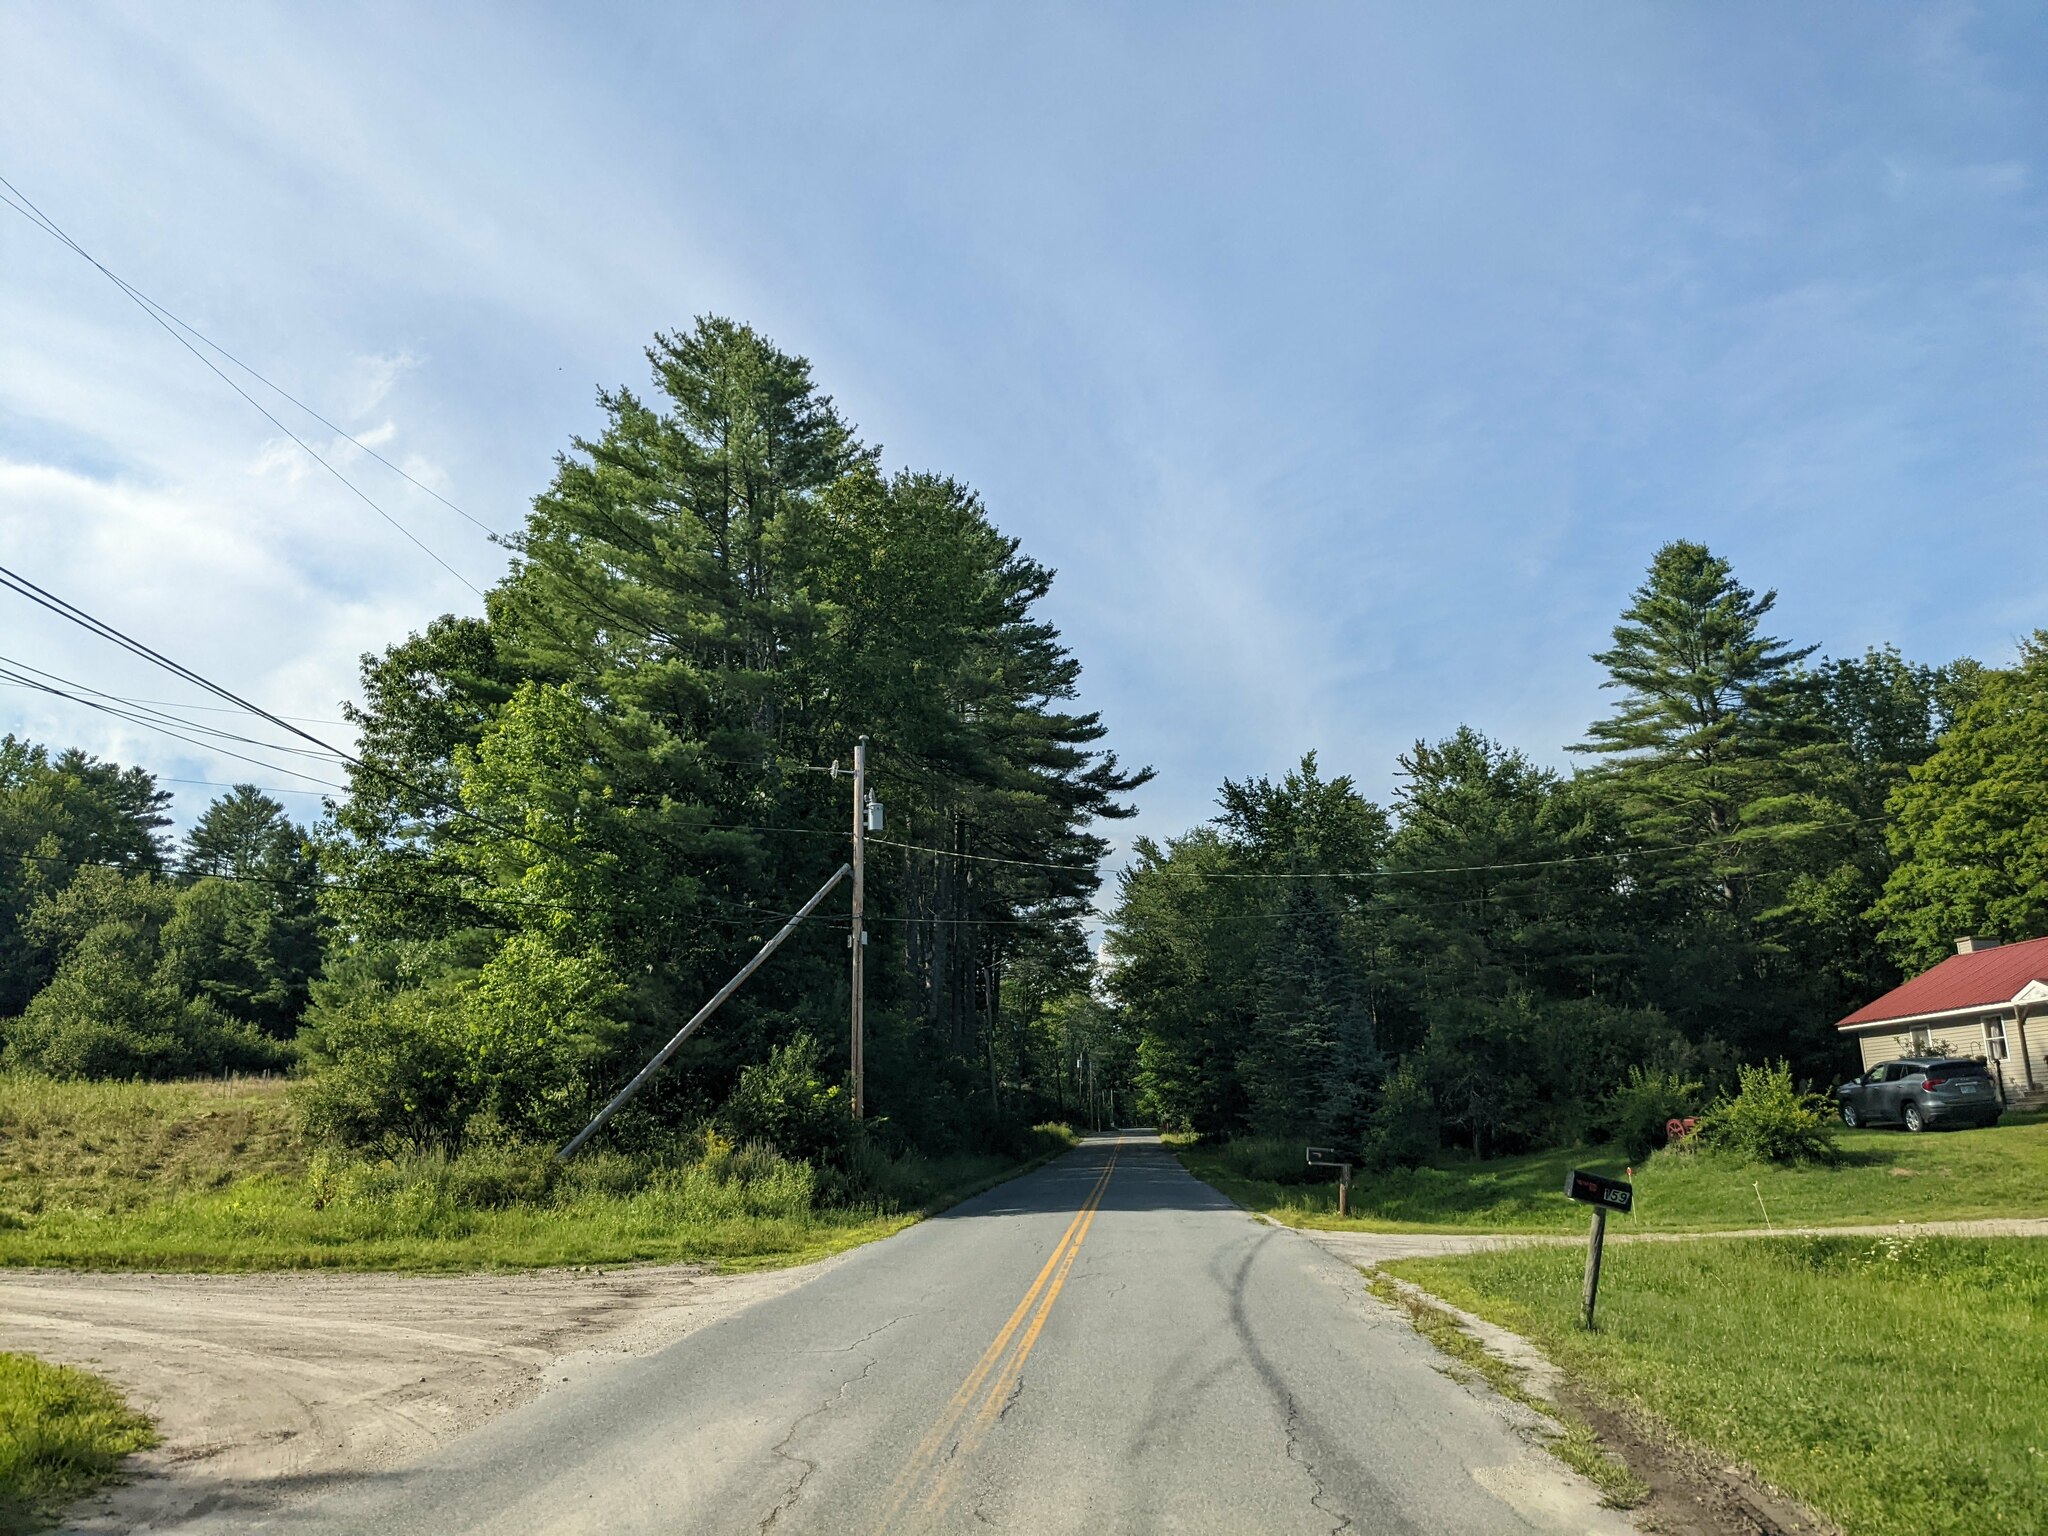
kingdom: Plantae
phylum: Tracheophyta
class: Pinopsida
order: Pinales
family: Pinaceae
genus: Pinus
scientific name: Pinus strobus
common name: Weymouth pine
